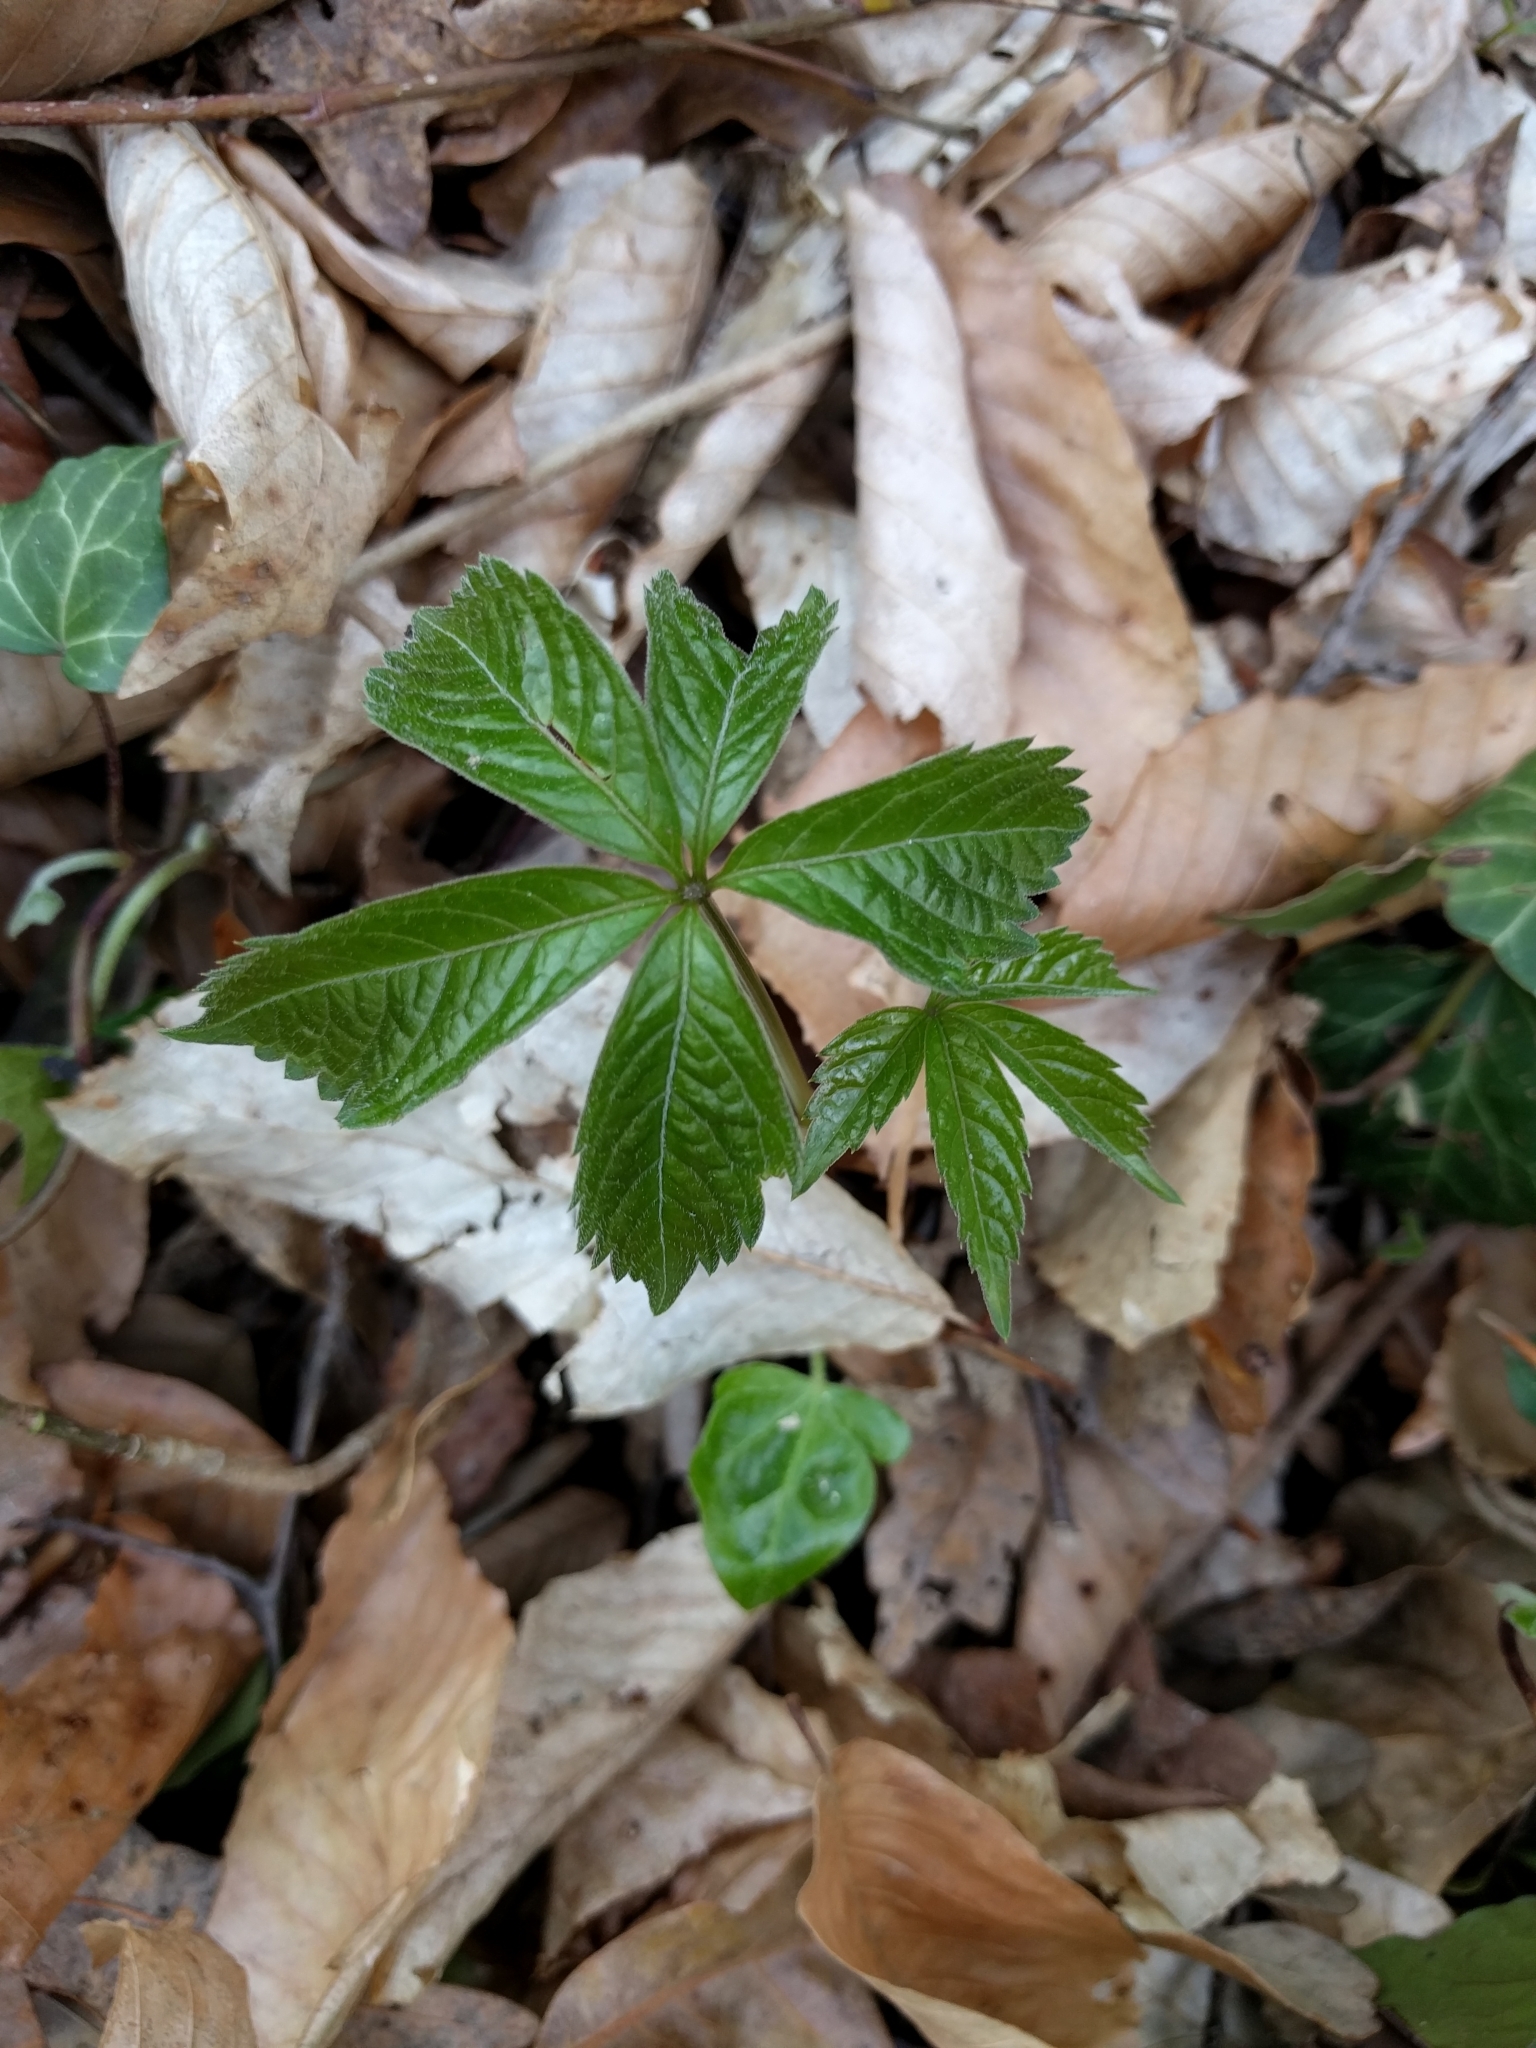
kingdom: Plantae
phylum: Tracheophyta
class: Magnoliopsida
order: Vitales
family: Vitaceae
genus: Parthenocissus
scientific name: Parthenocissus quinquefolia
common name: Virginia-creeper
